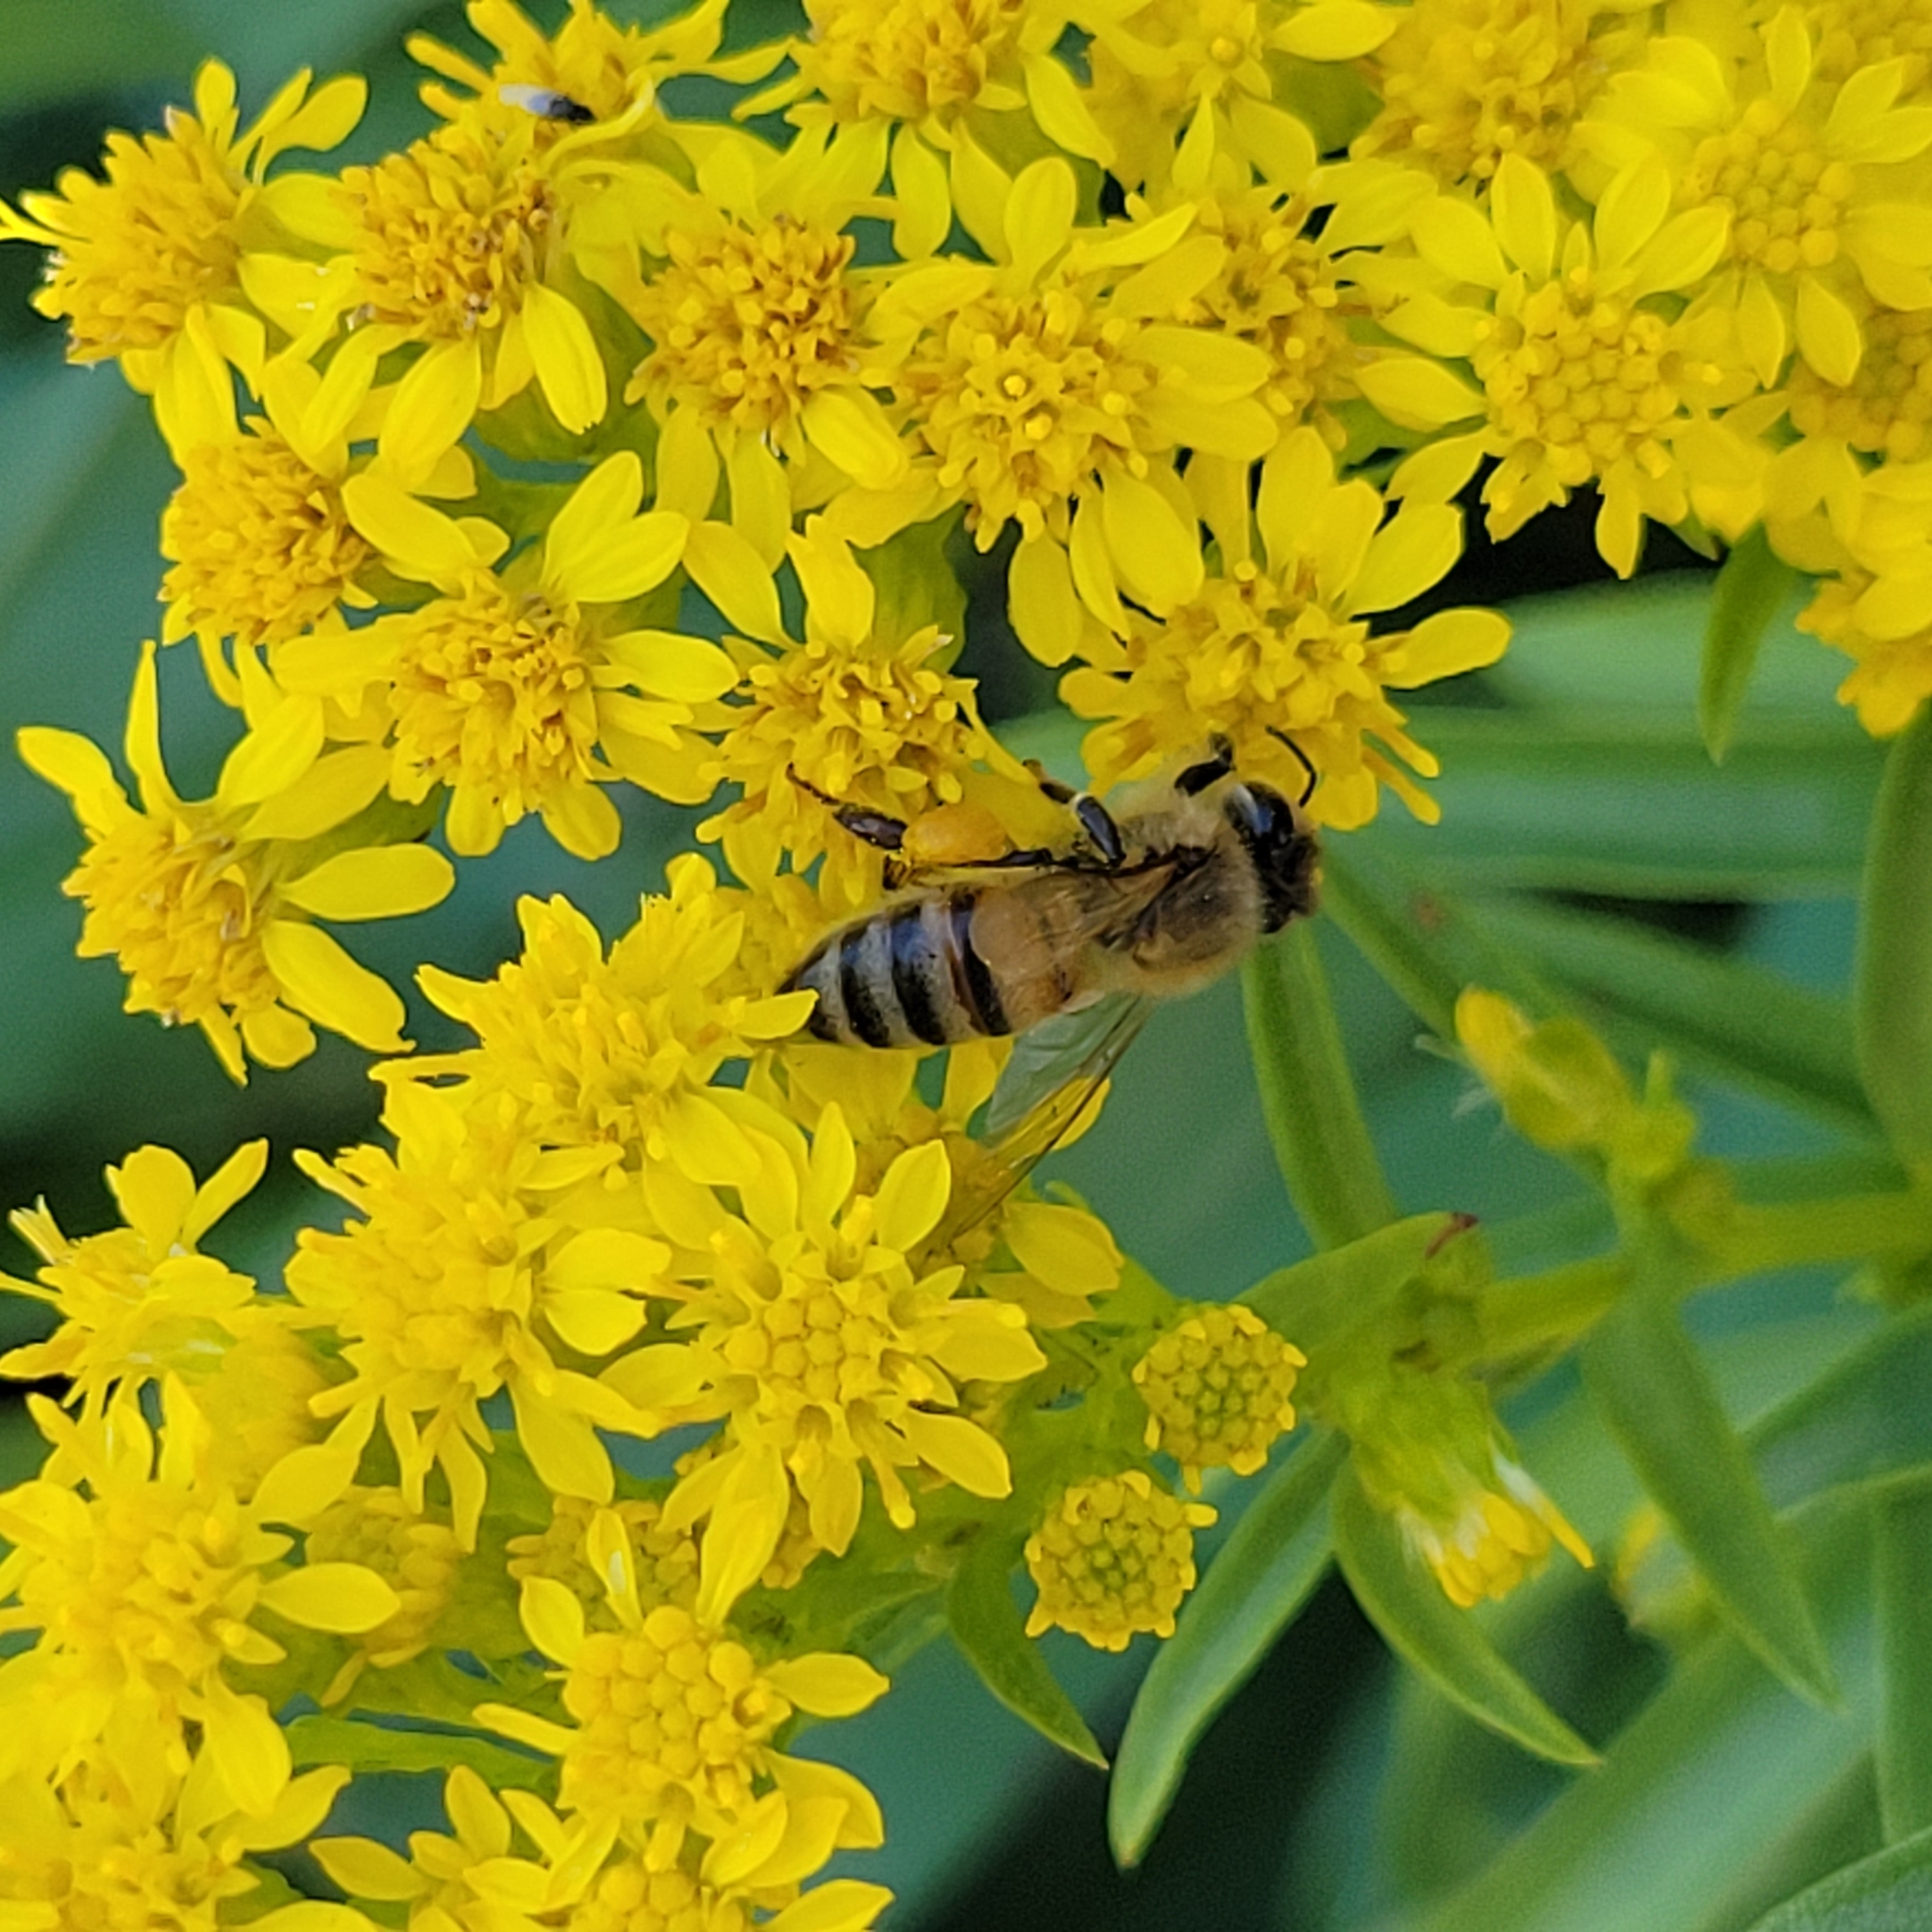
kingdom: Animalia
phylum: Arthropoda
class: Insecta
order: Hymenoptera
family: Apidae
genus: Apis
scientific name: Apis mellifera
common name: Honey bee
